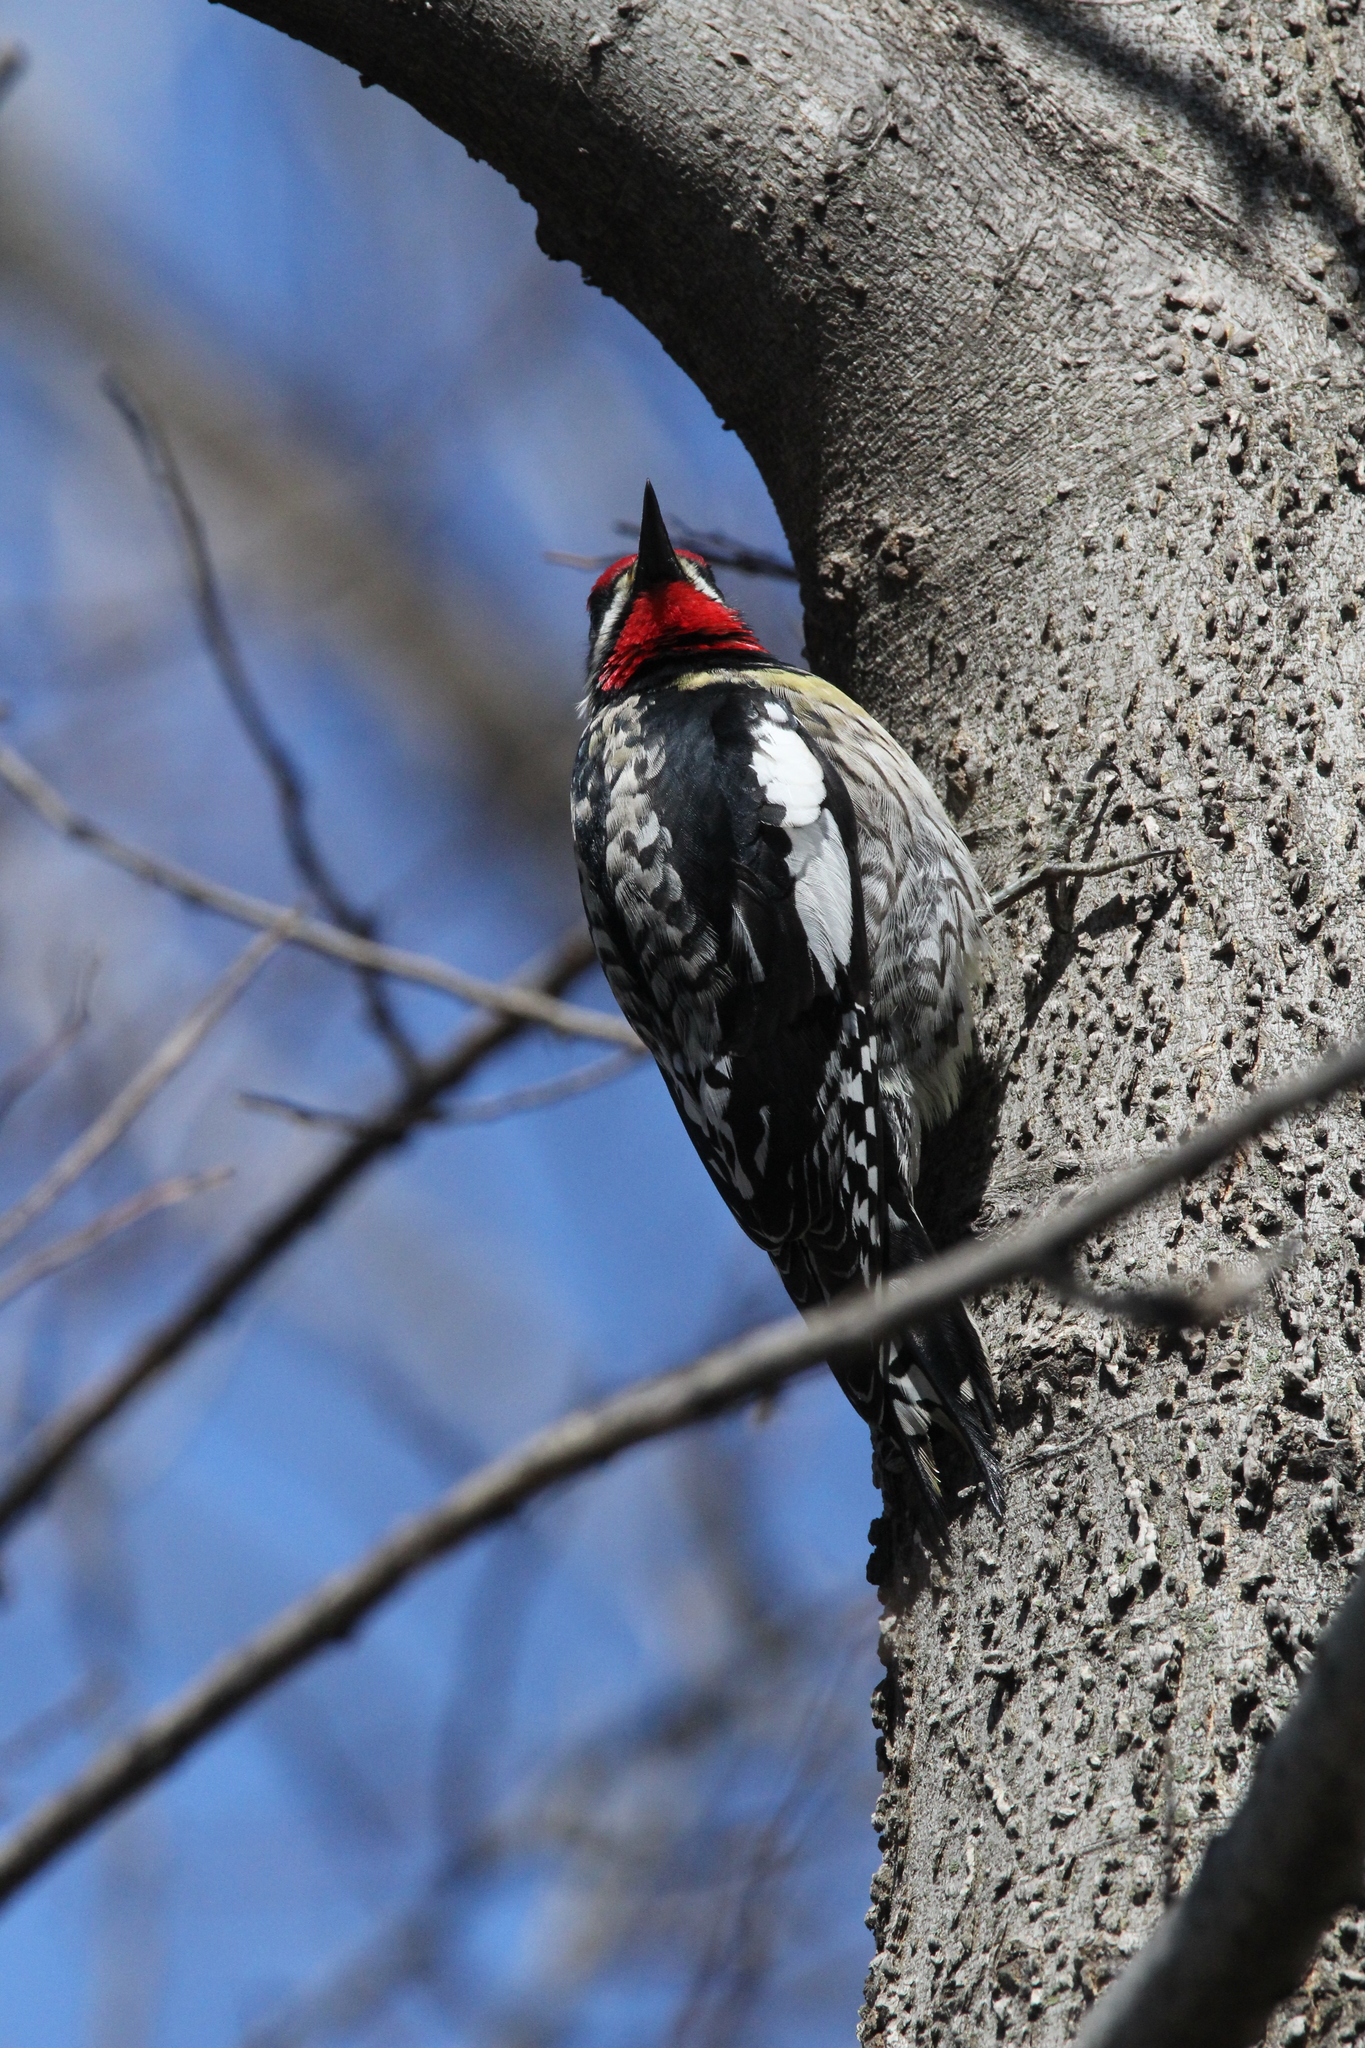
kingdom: Animalia
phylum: Chordata
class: Aves
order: Piciformes
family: Picidae
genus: Sphyrapicus
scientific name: Sphyrapicus varius
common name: Yellow-bellied sapsucker
